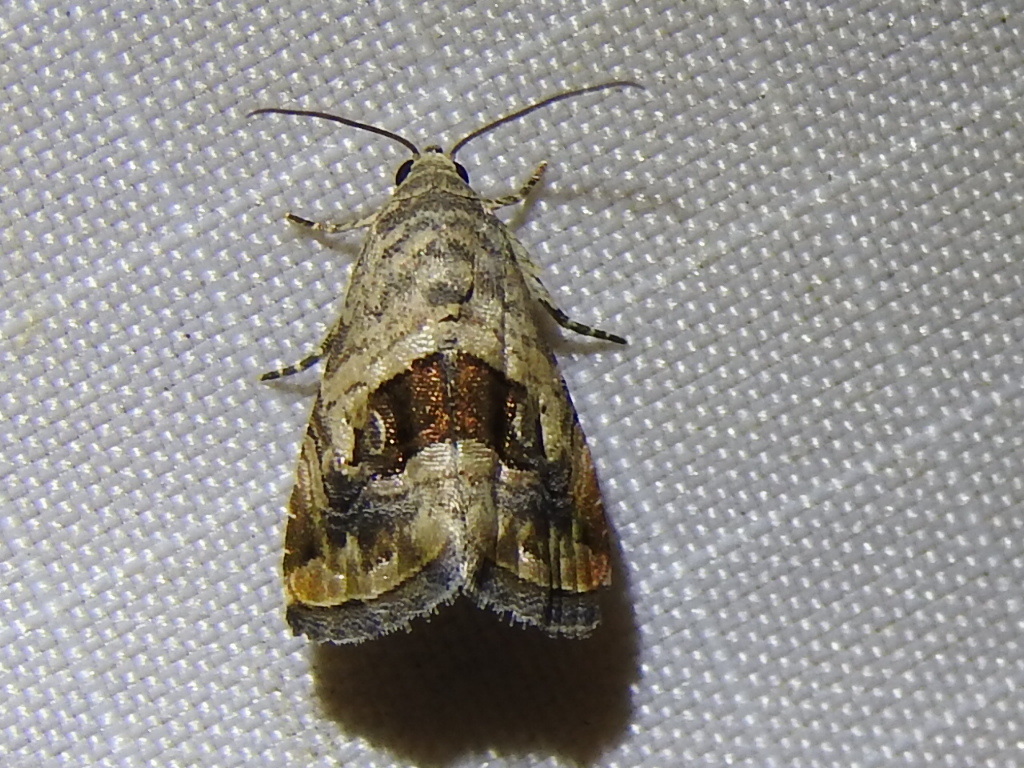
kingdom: Animalia
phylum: Arthropoda
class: Insecta
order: Lepidoptera
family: Noctuidae
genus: Tripudia
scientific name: Tripudia quadrifera
